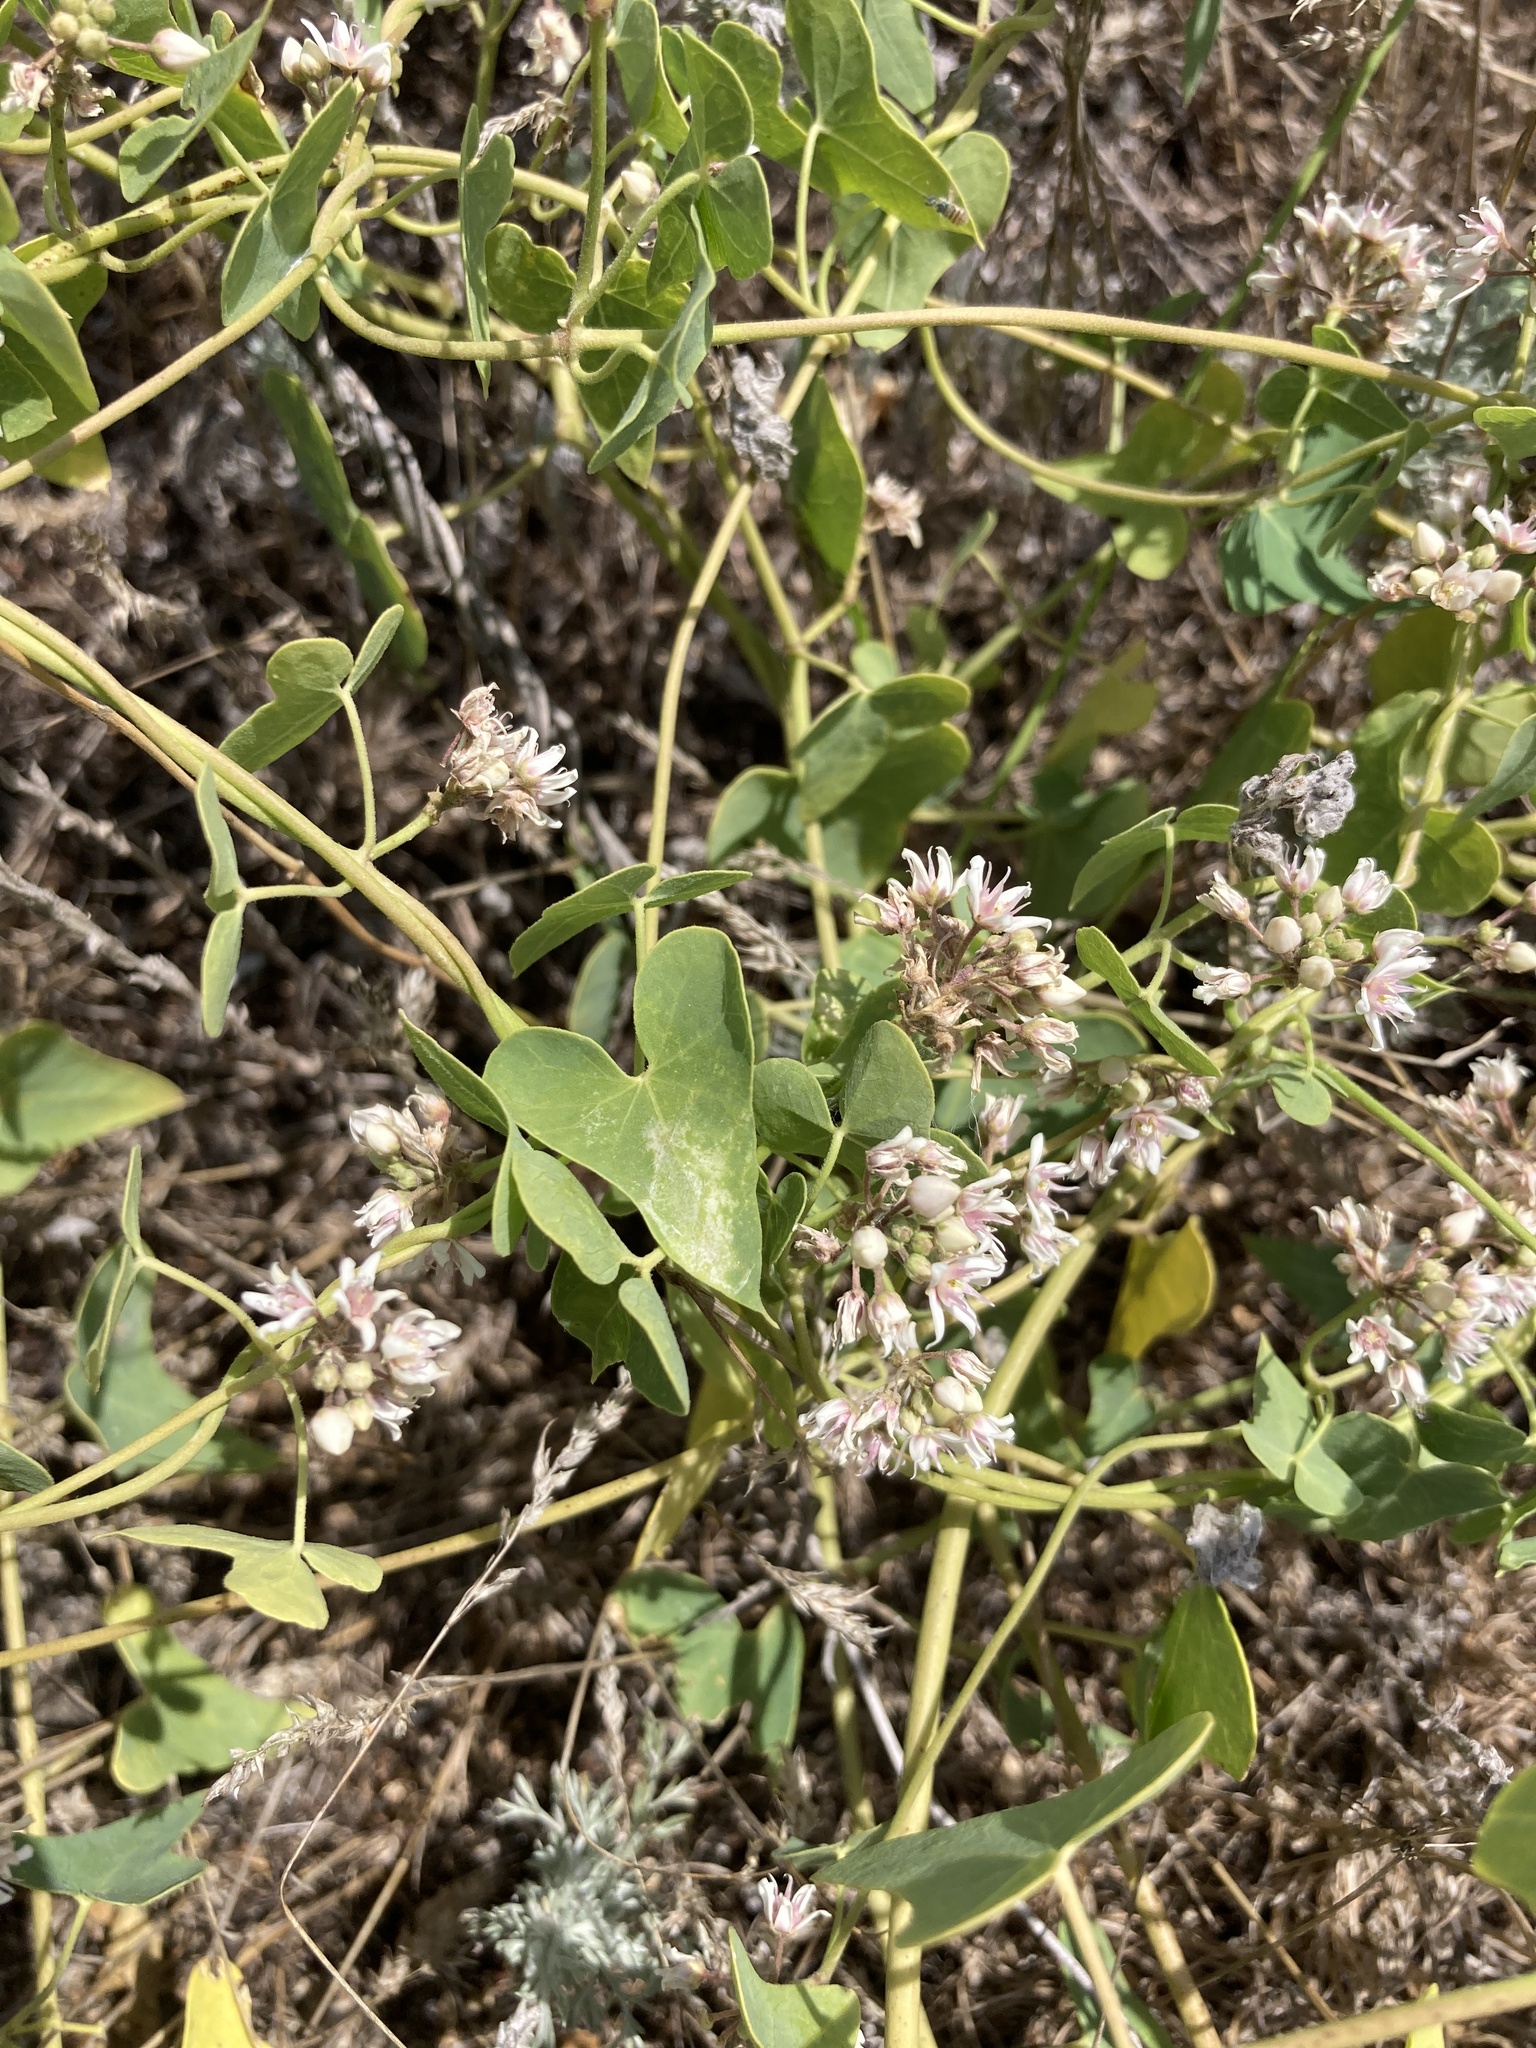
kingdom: Plantae
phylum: Tracheophyta
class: Magnoliopsida
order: Gentianales
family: Apocynaceae
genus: Cynanchum
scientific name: Cynanchum acutum
